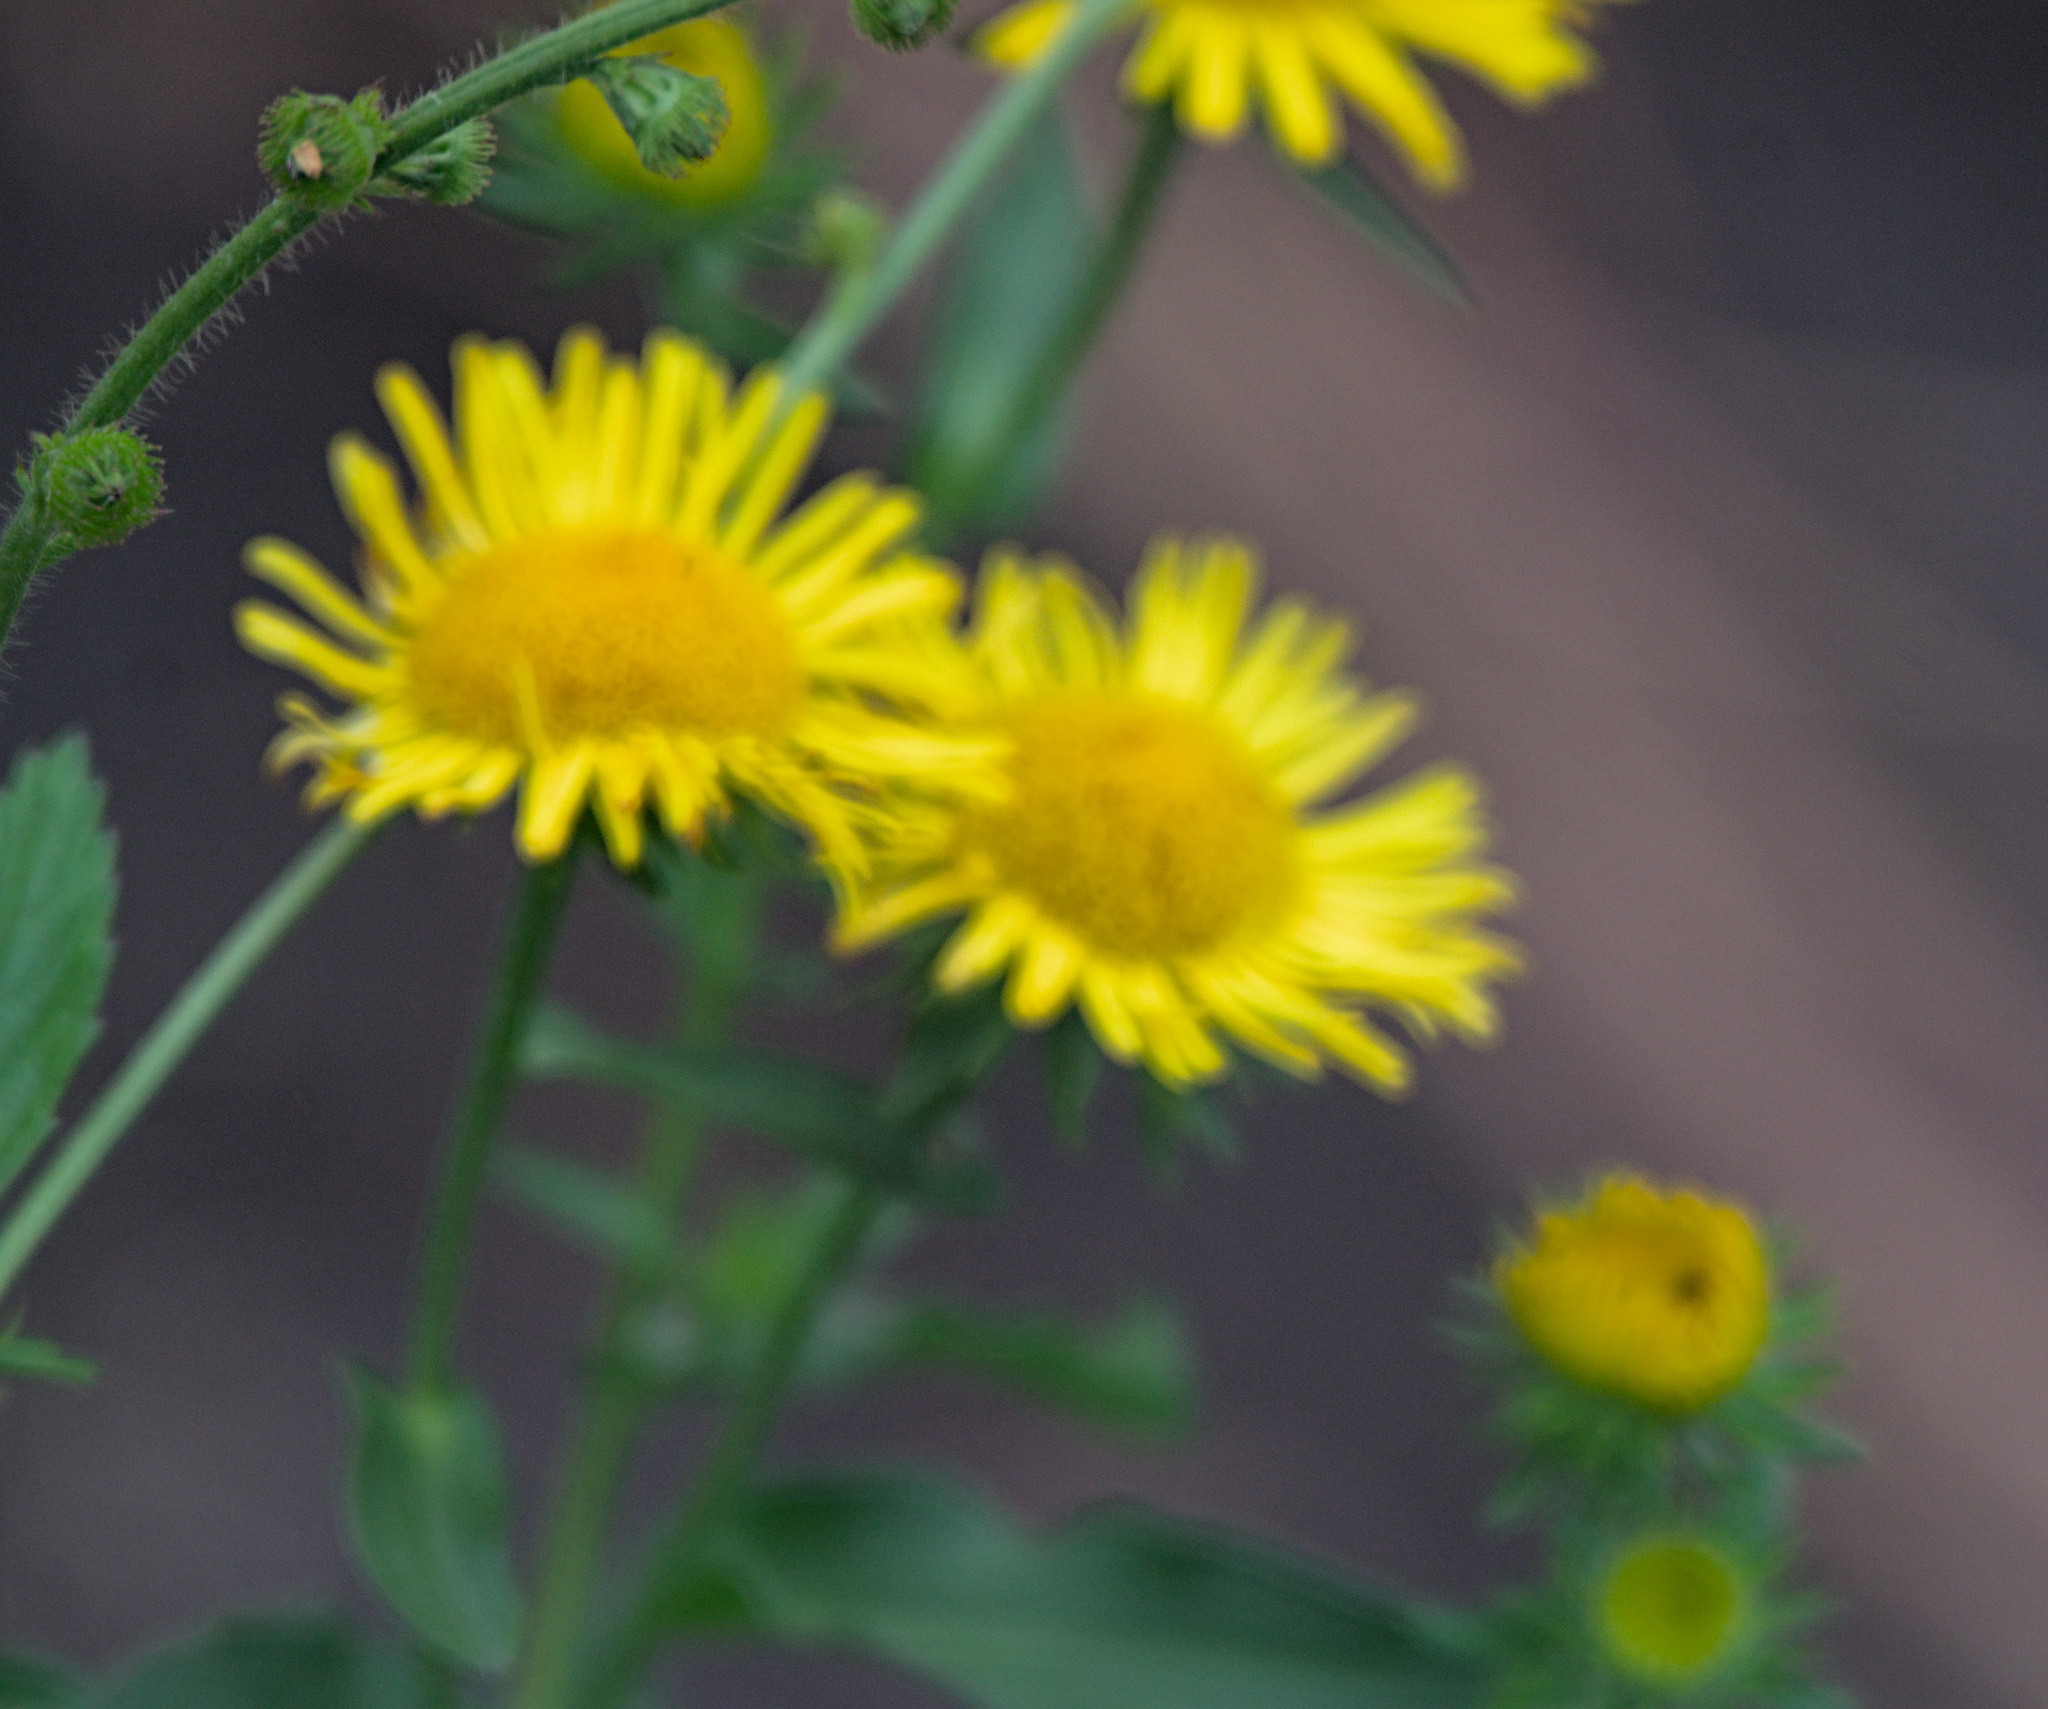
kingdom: Plantae
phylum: Tracheophyta
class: Magnoliopsida
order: Asterales
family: Asteraceae
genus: Pentanema
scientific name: Pentanema britannicum
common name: British elecampane
